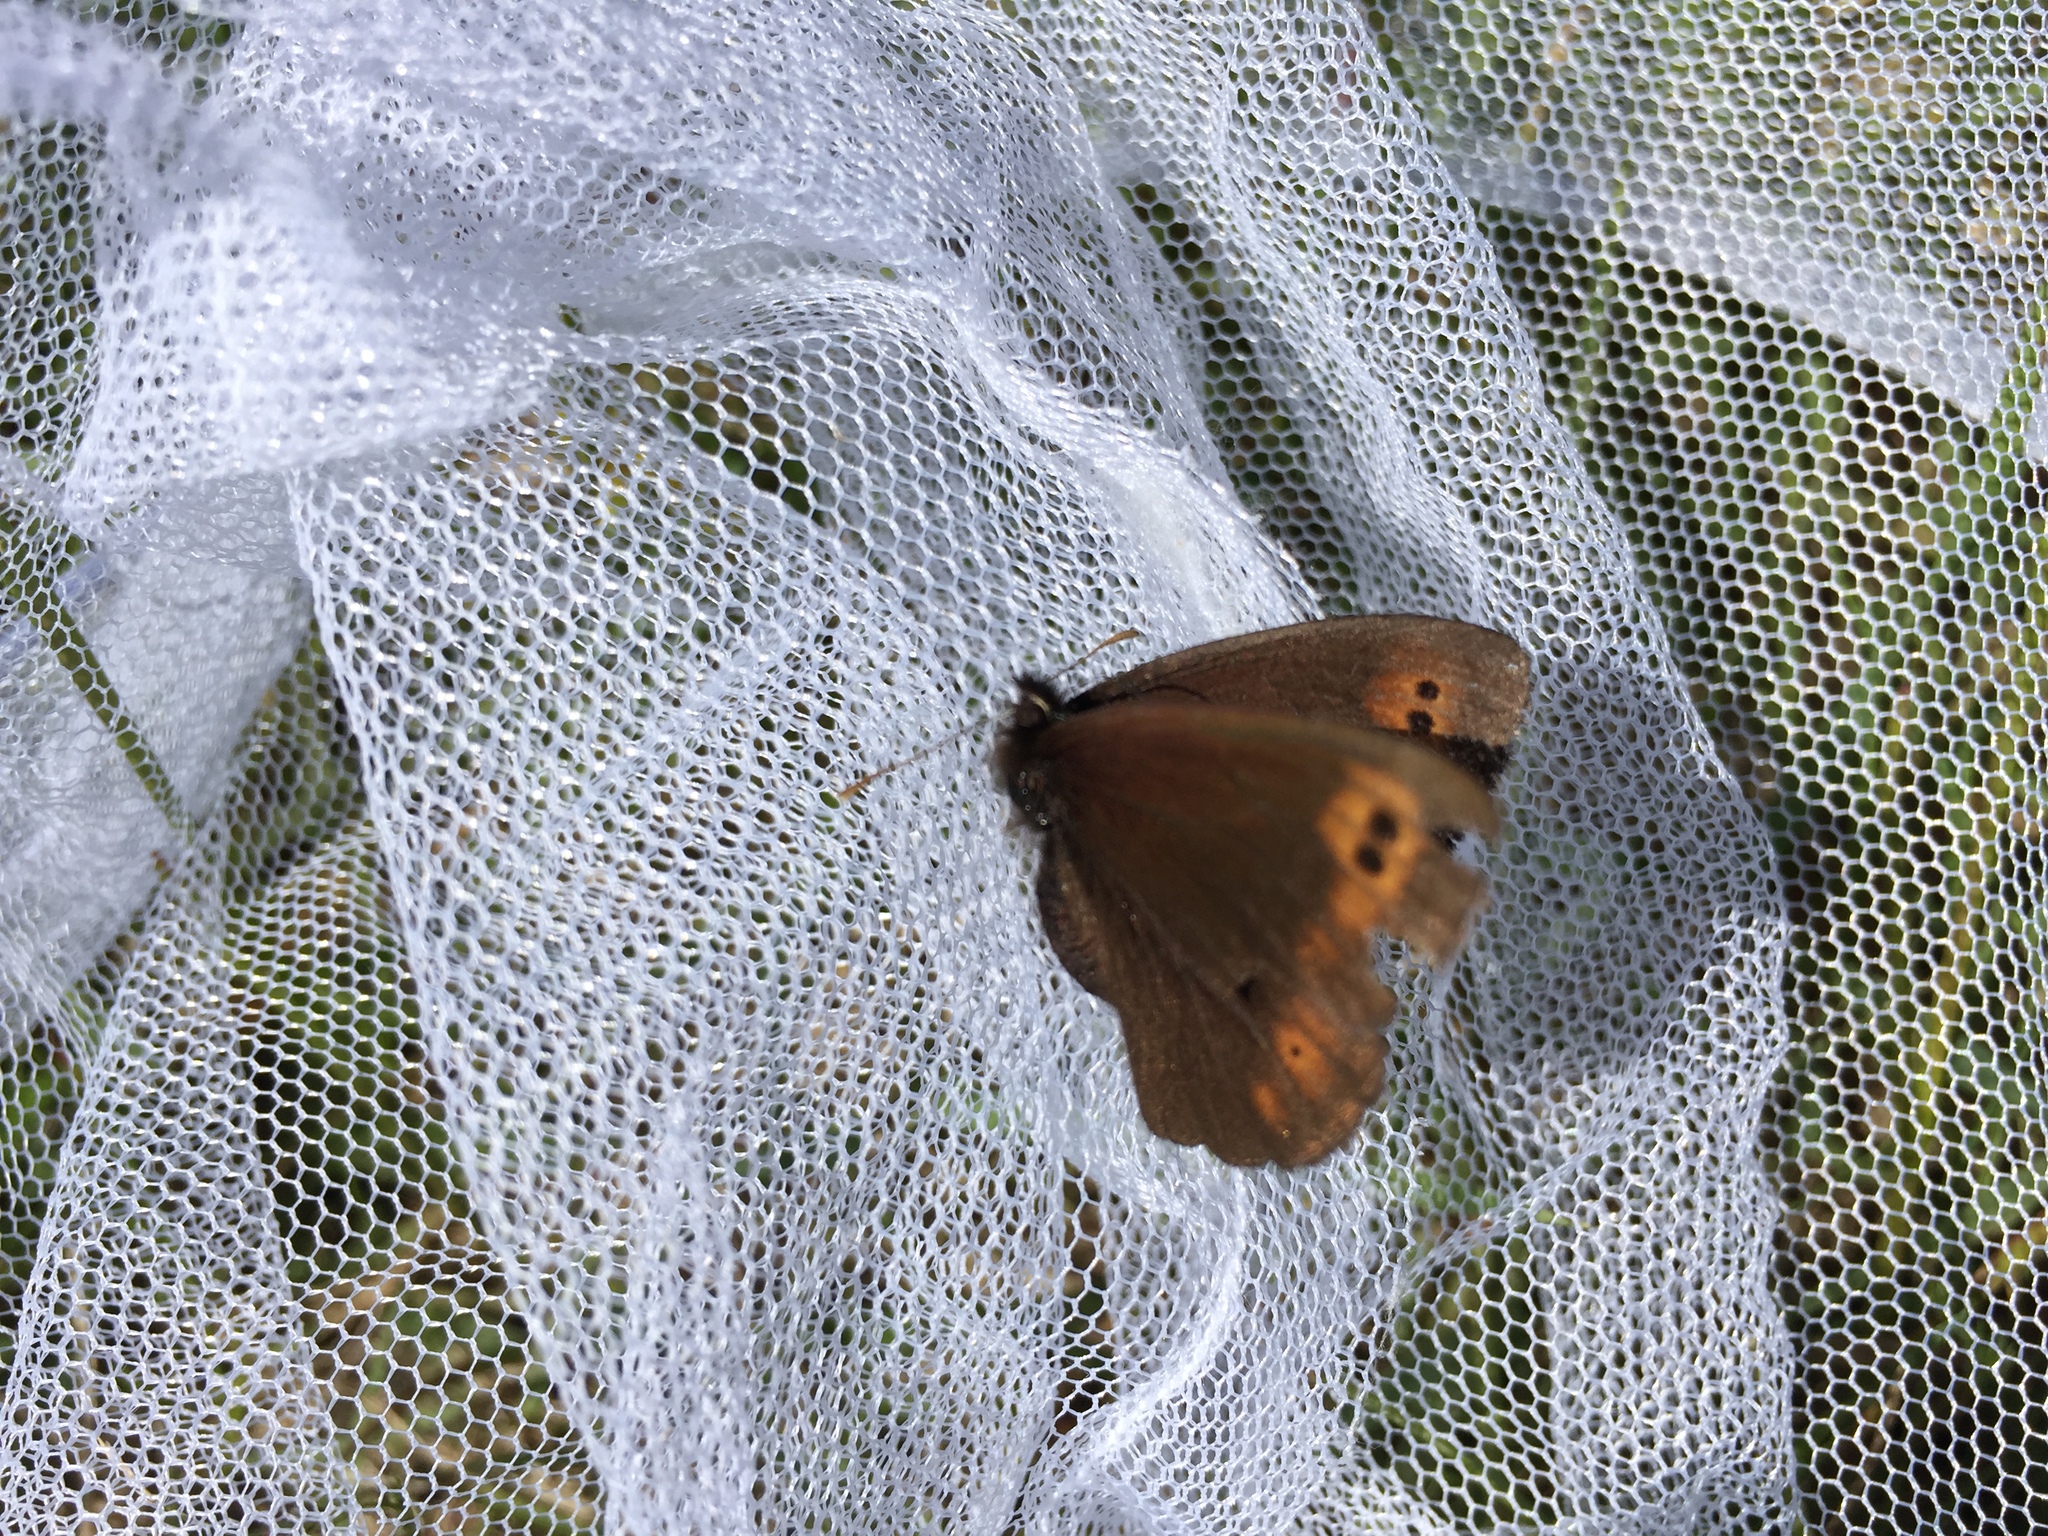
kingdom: Animalia
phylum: Arthropoda
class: Insecta
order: Lepidoptera
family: Nymphalidae
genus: Erebia
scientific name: Erebia epipsodea
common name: Common alpine
